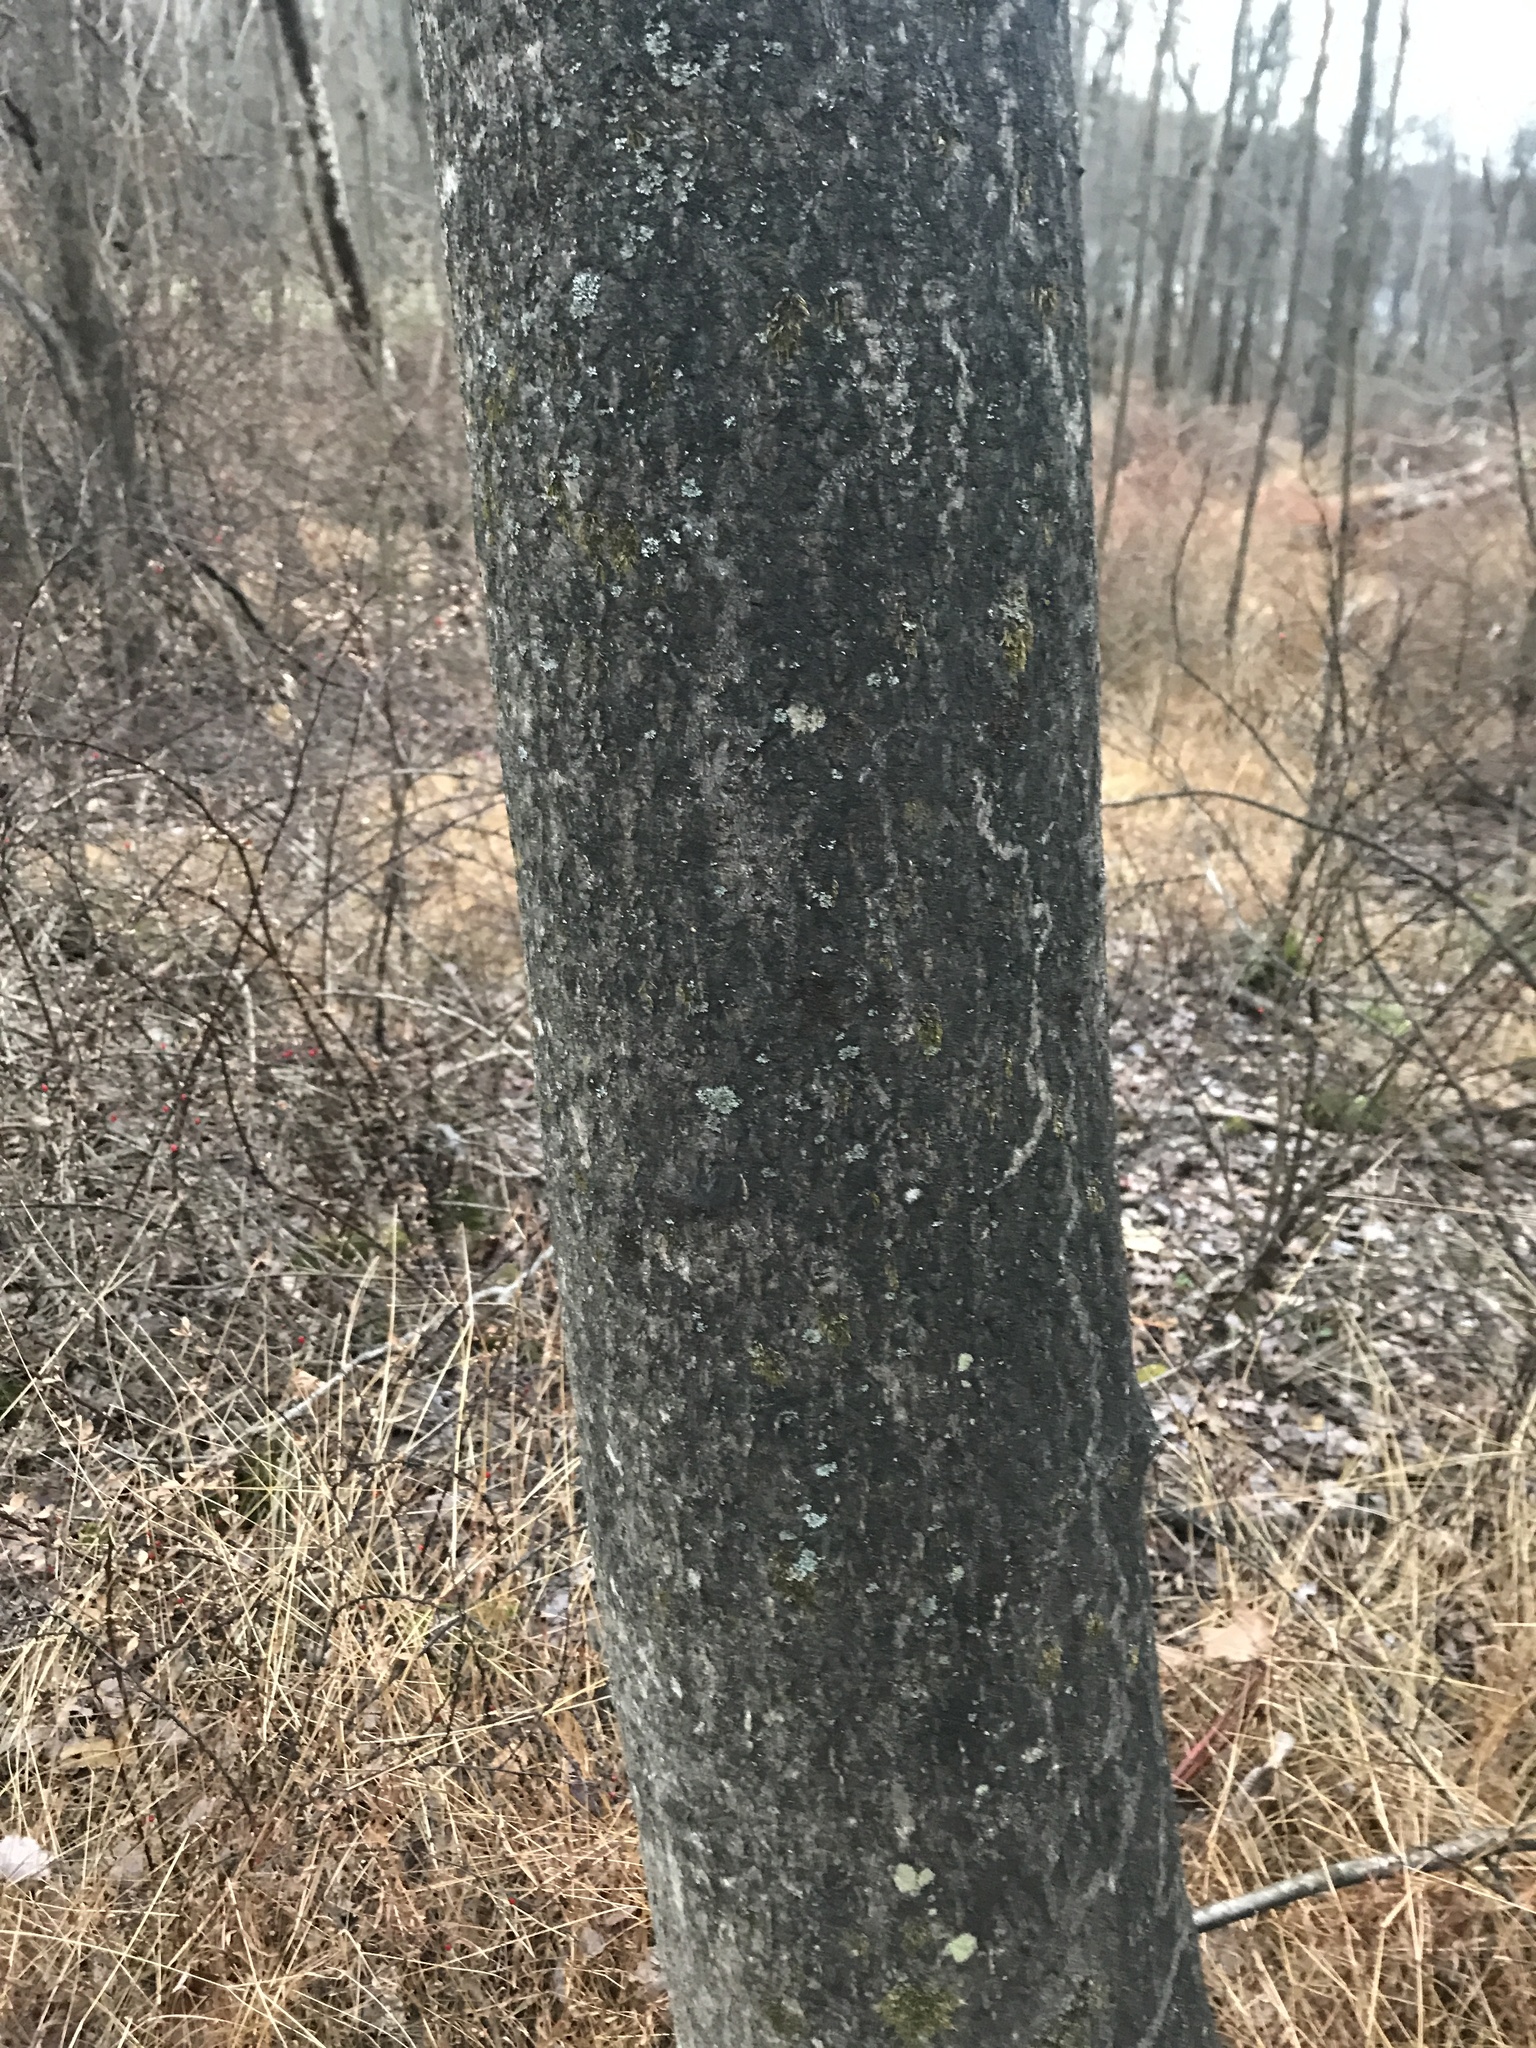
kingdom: Plantae
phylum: Tracheophyta
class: Magnoliopsida
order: Sapindales
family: Simaroubaceae
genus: Ailanthus
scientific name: Ailanthus altissima
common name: Tree-of-heaven
